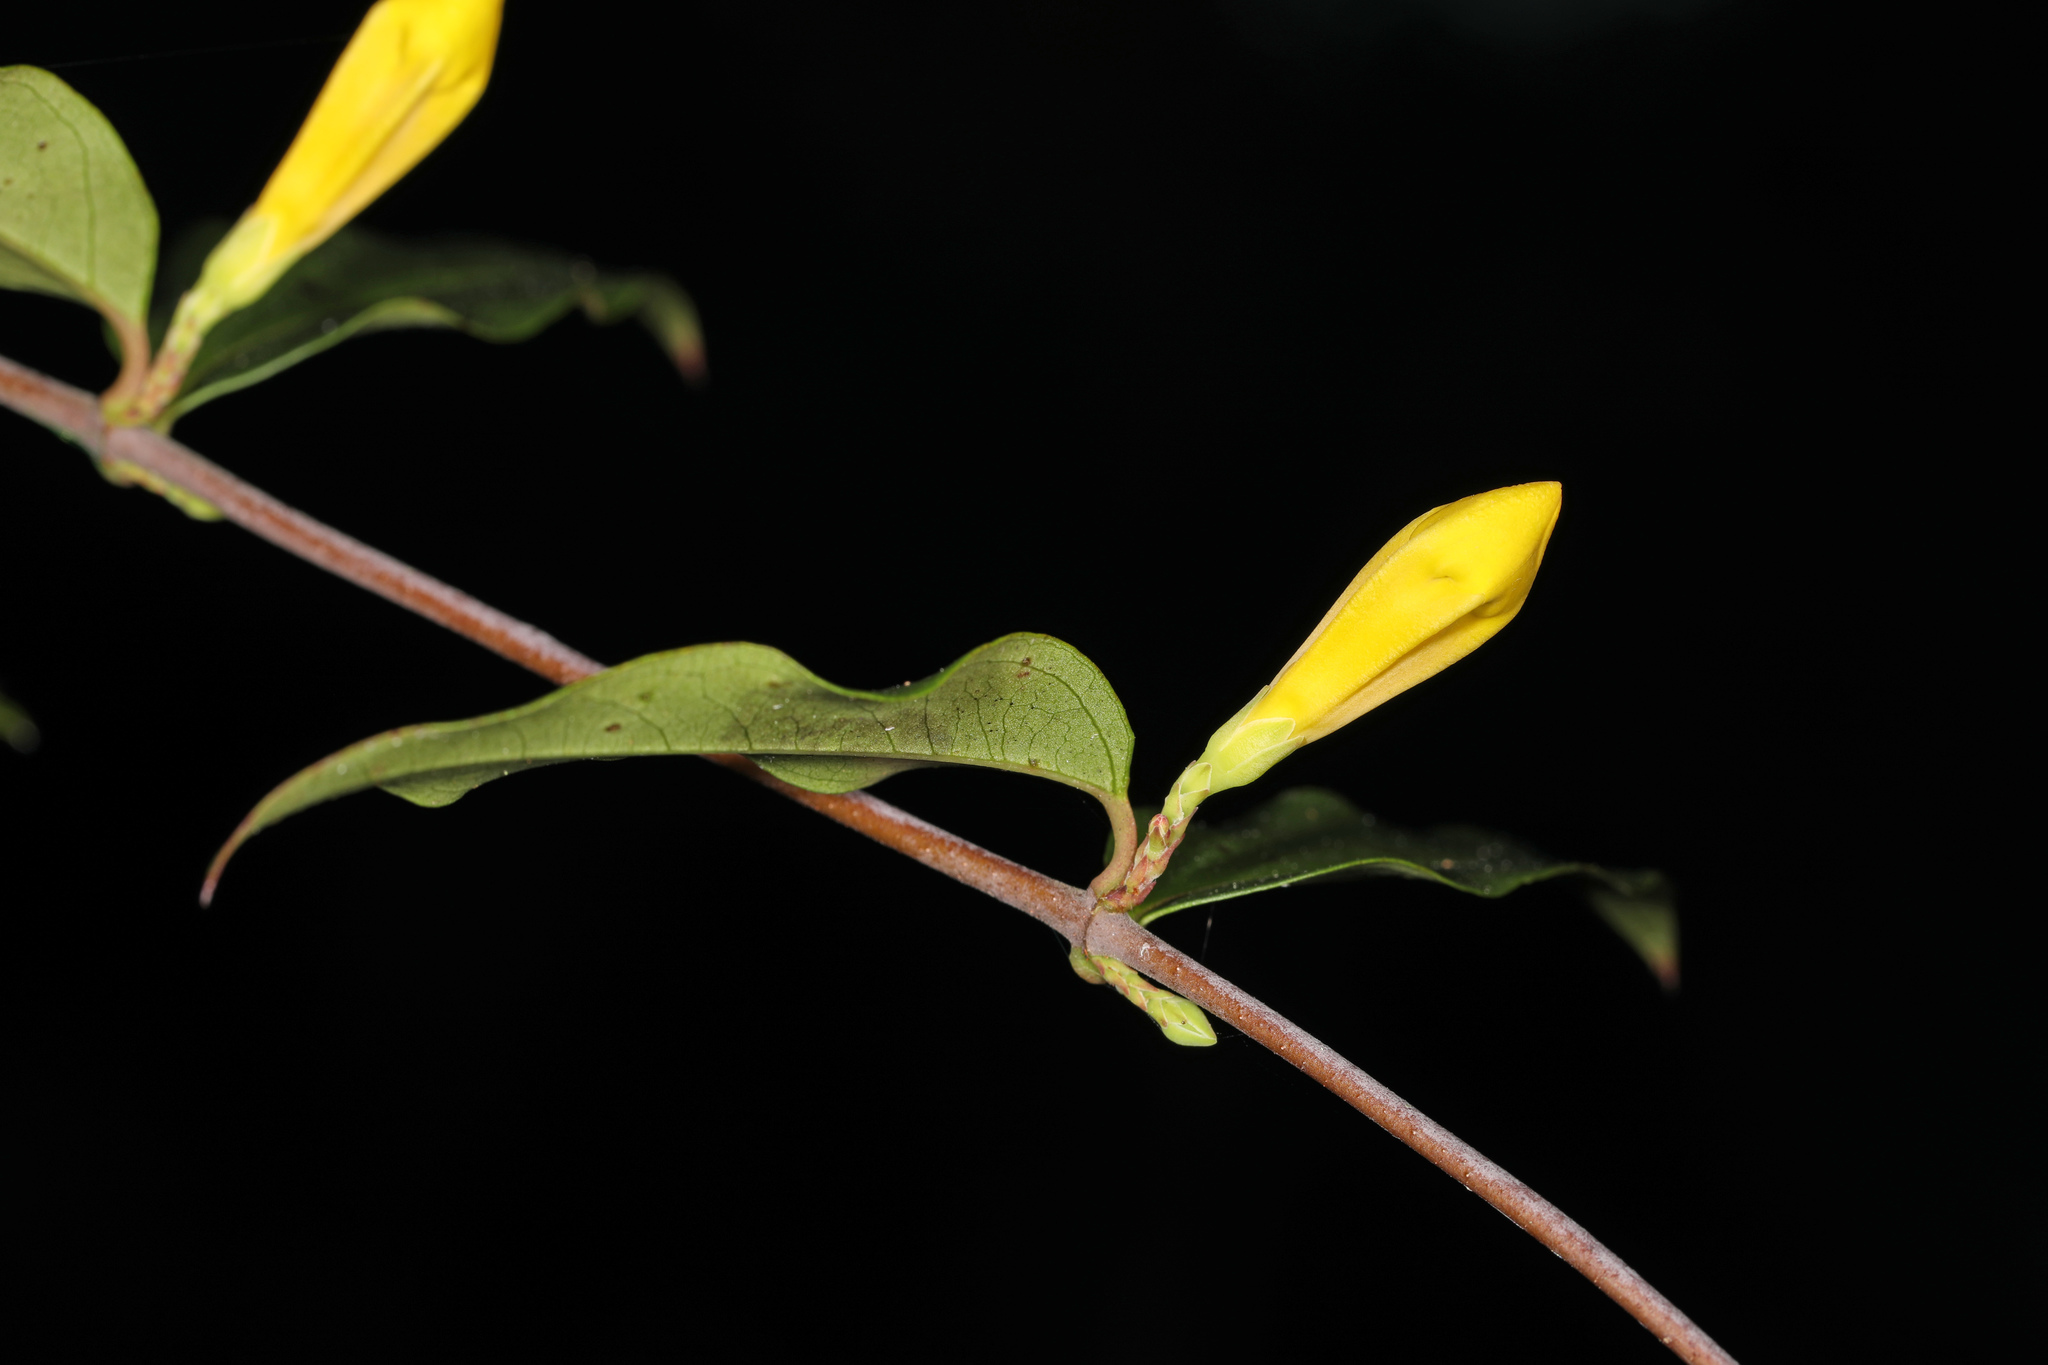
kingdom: Plantae
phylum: Tracheophyta
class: Magnoliopsida
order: Gentianales
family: Gelsemiaceae
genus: Gelsemium
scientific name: Gelsemium sempervirens
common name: Carolina-jasmine
